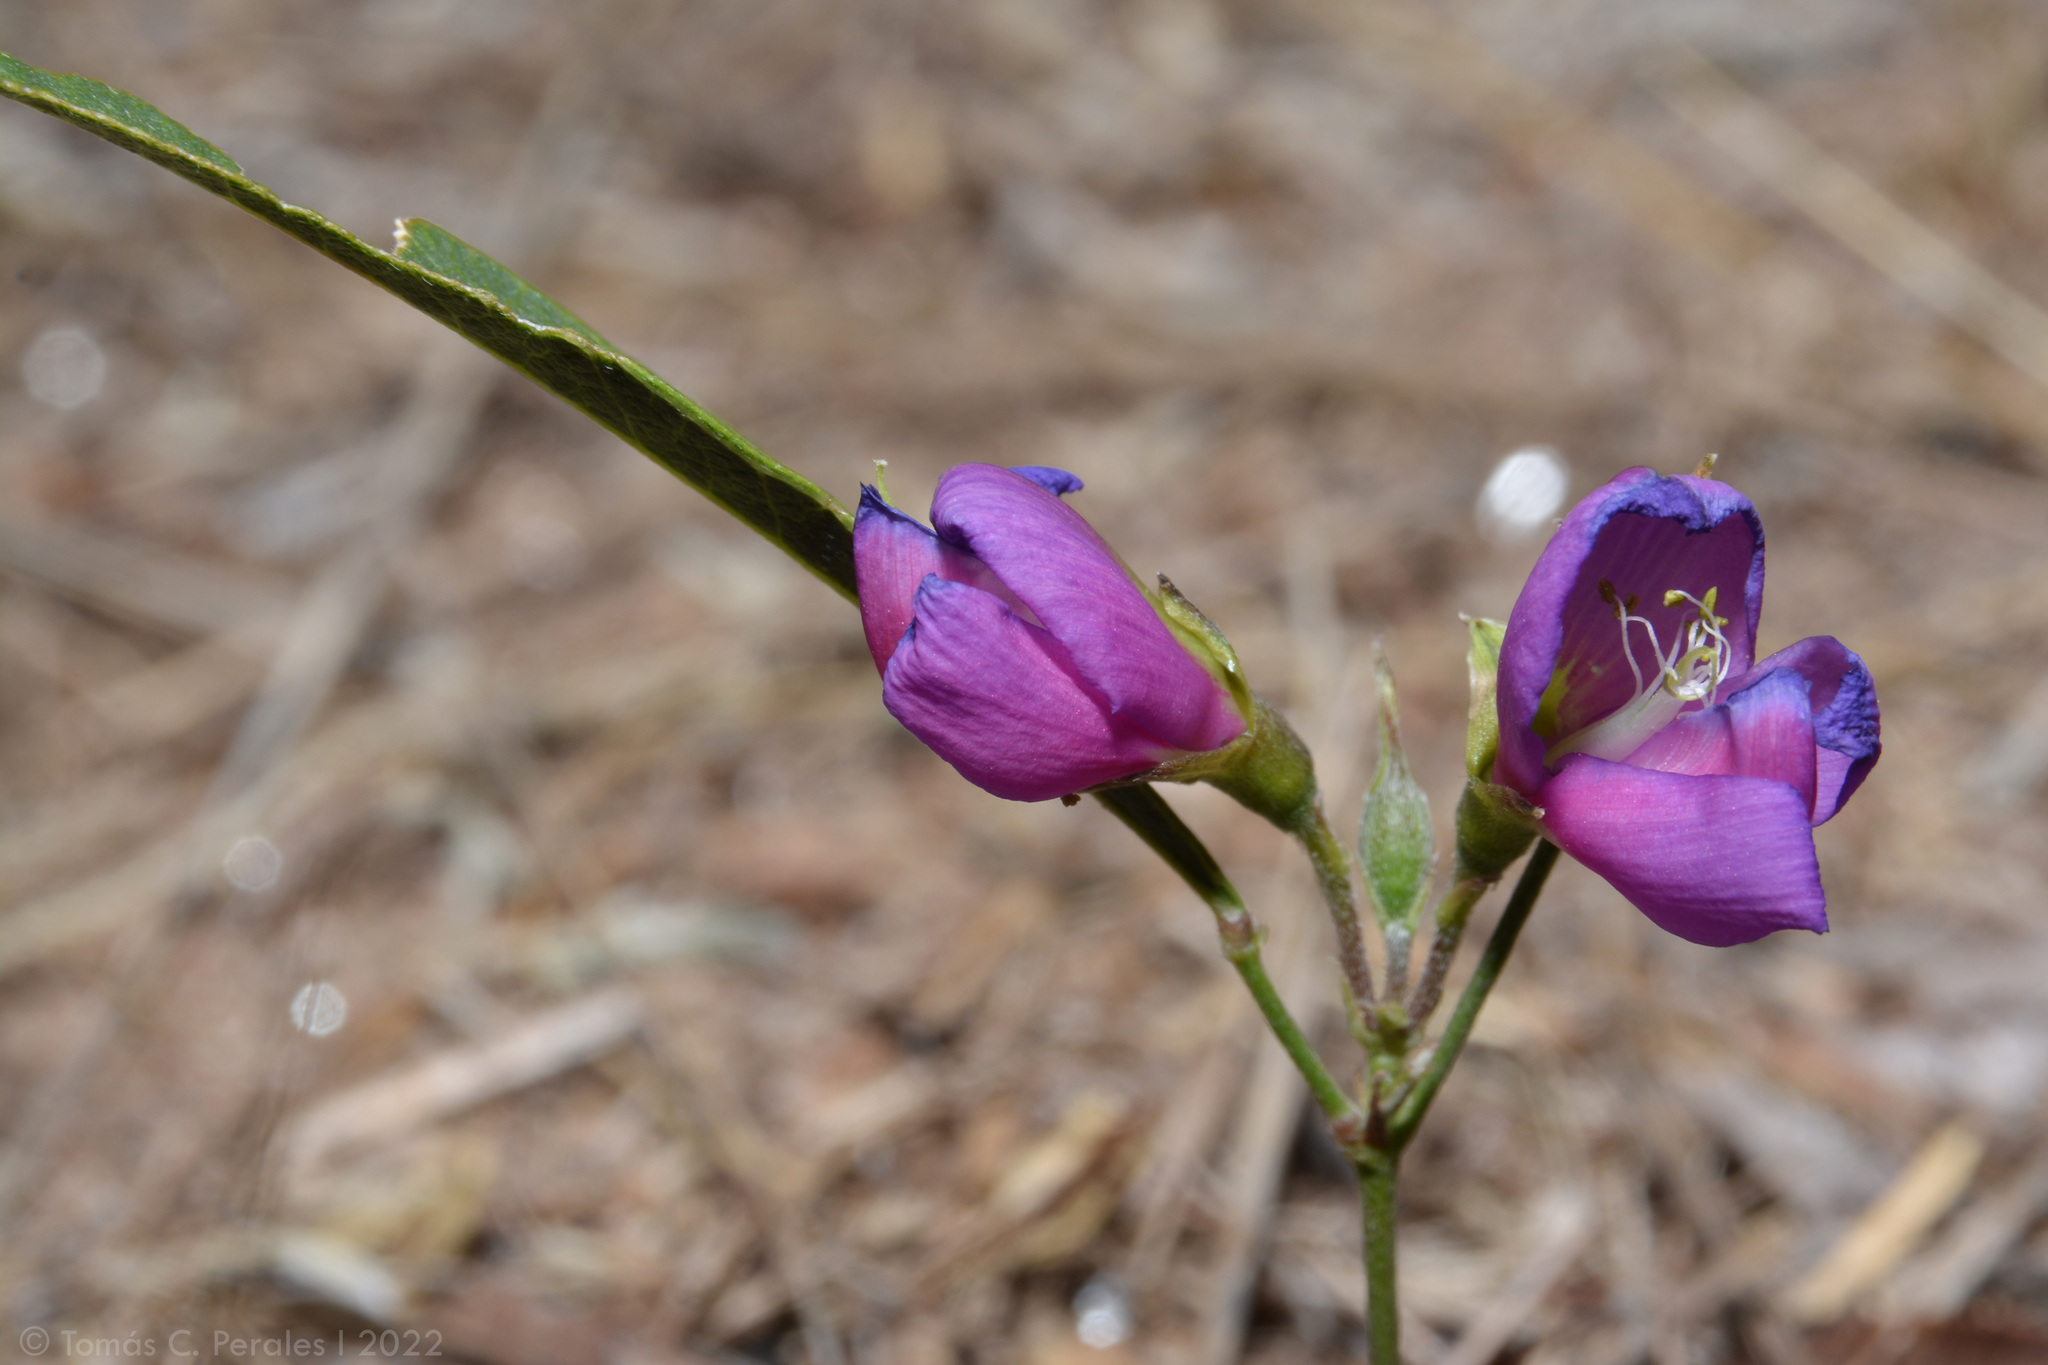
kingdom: Plantae
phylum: Tracheophyta
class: Magnoliopsida
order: Fabales
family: Fabaceae
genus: Nanogalactia
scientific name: Nanogalactia heterophylla
